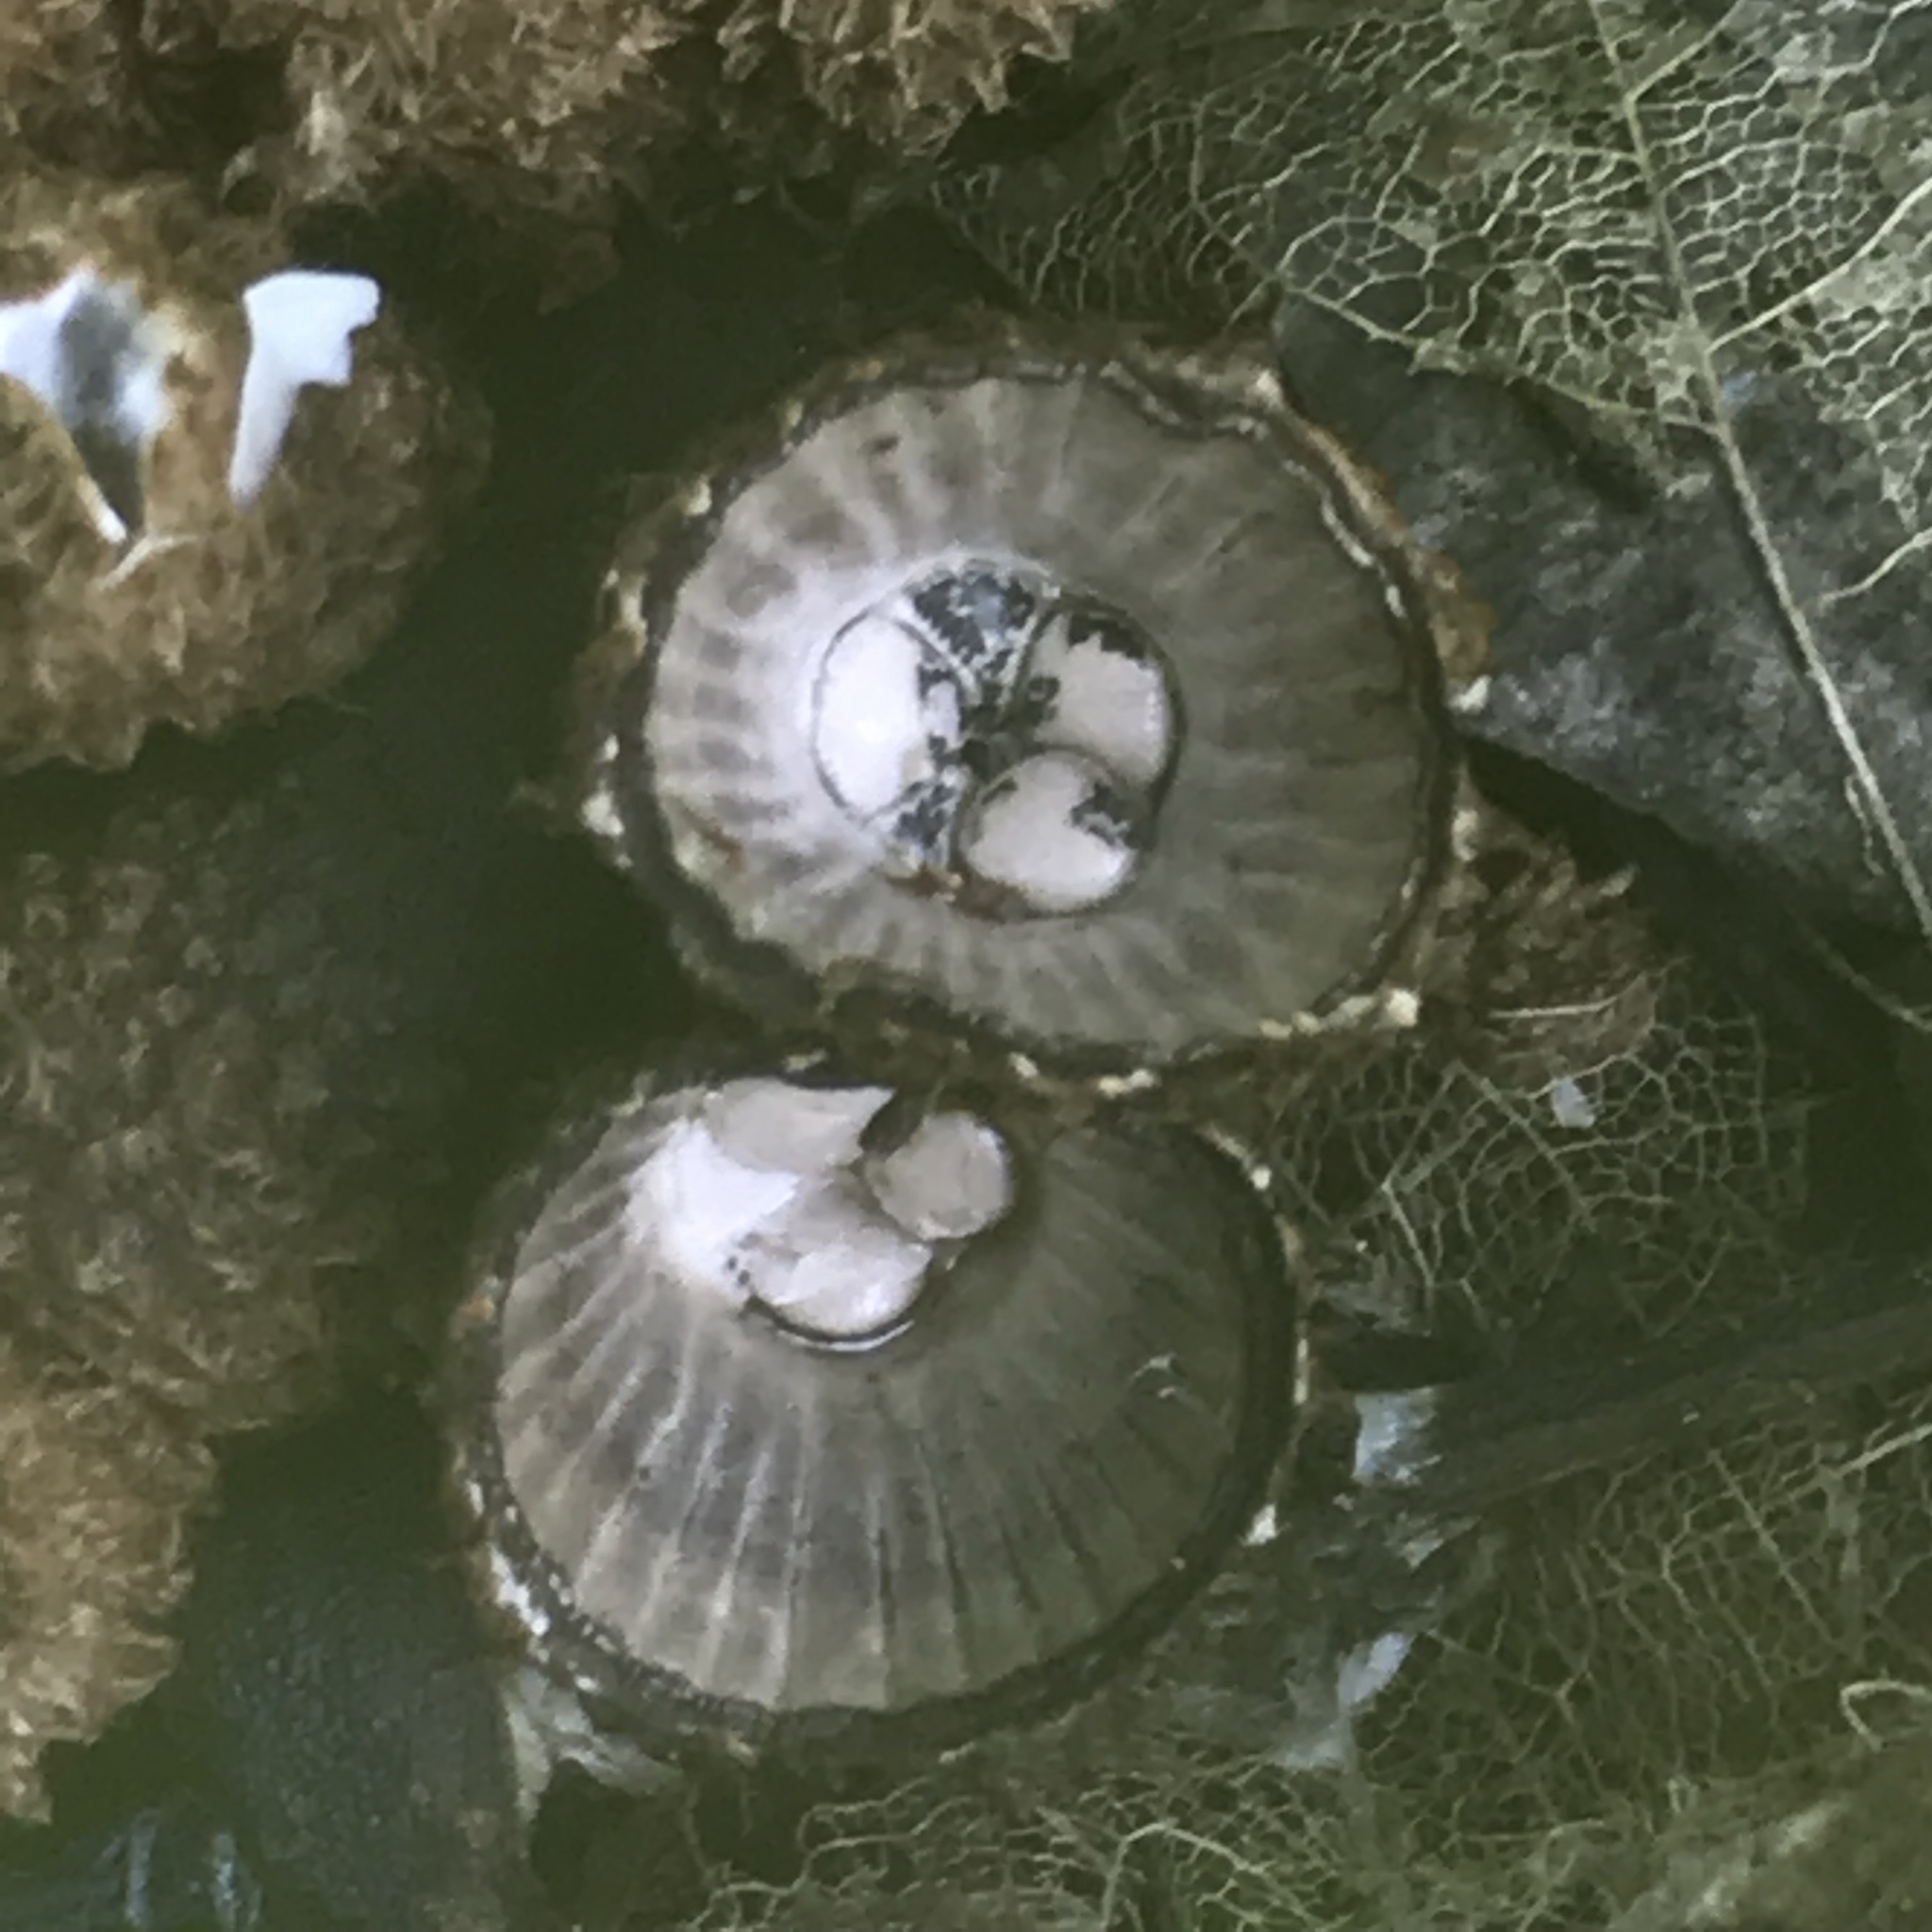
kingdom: Fungi
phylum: Basidiomycota
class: Agaricomycetes
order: Agaricales
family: Agaricaceae
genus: Cyathus
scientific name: Cyathus striatus
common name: Fluted bird's nest
